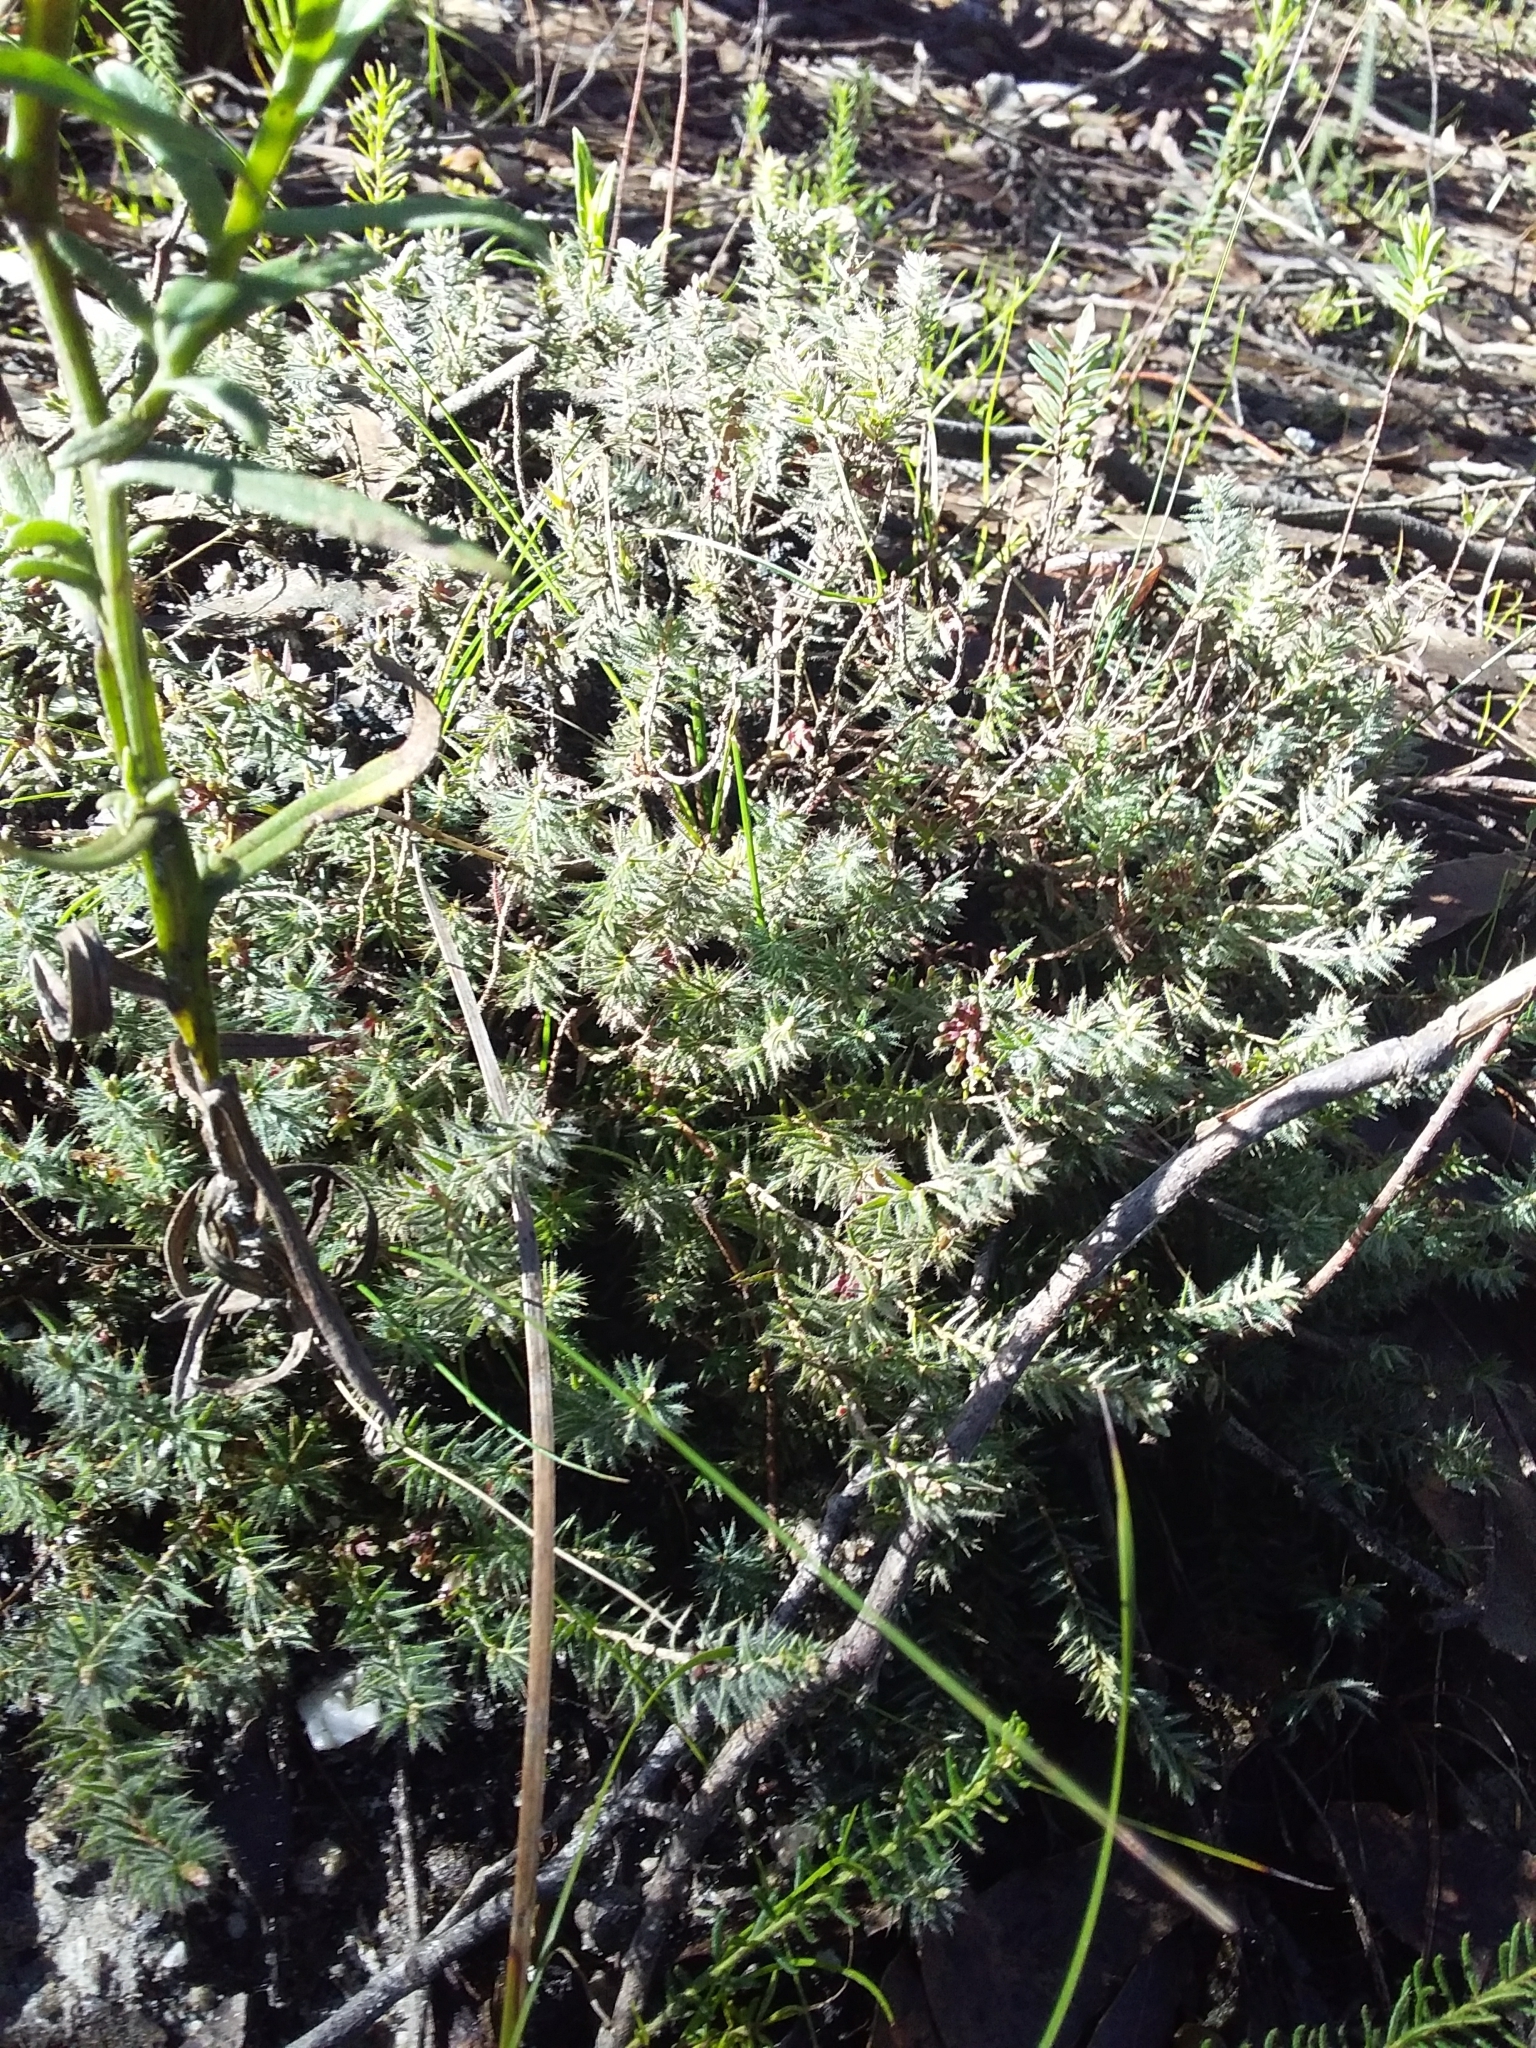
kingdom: Plantae
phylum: Tracheophyta
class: Magnoliopsida
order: Ericales
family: Ericaceae
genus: Acrotriche
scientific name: Acrotriche serrulata
